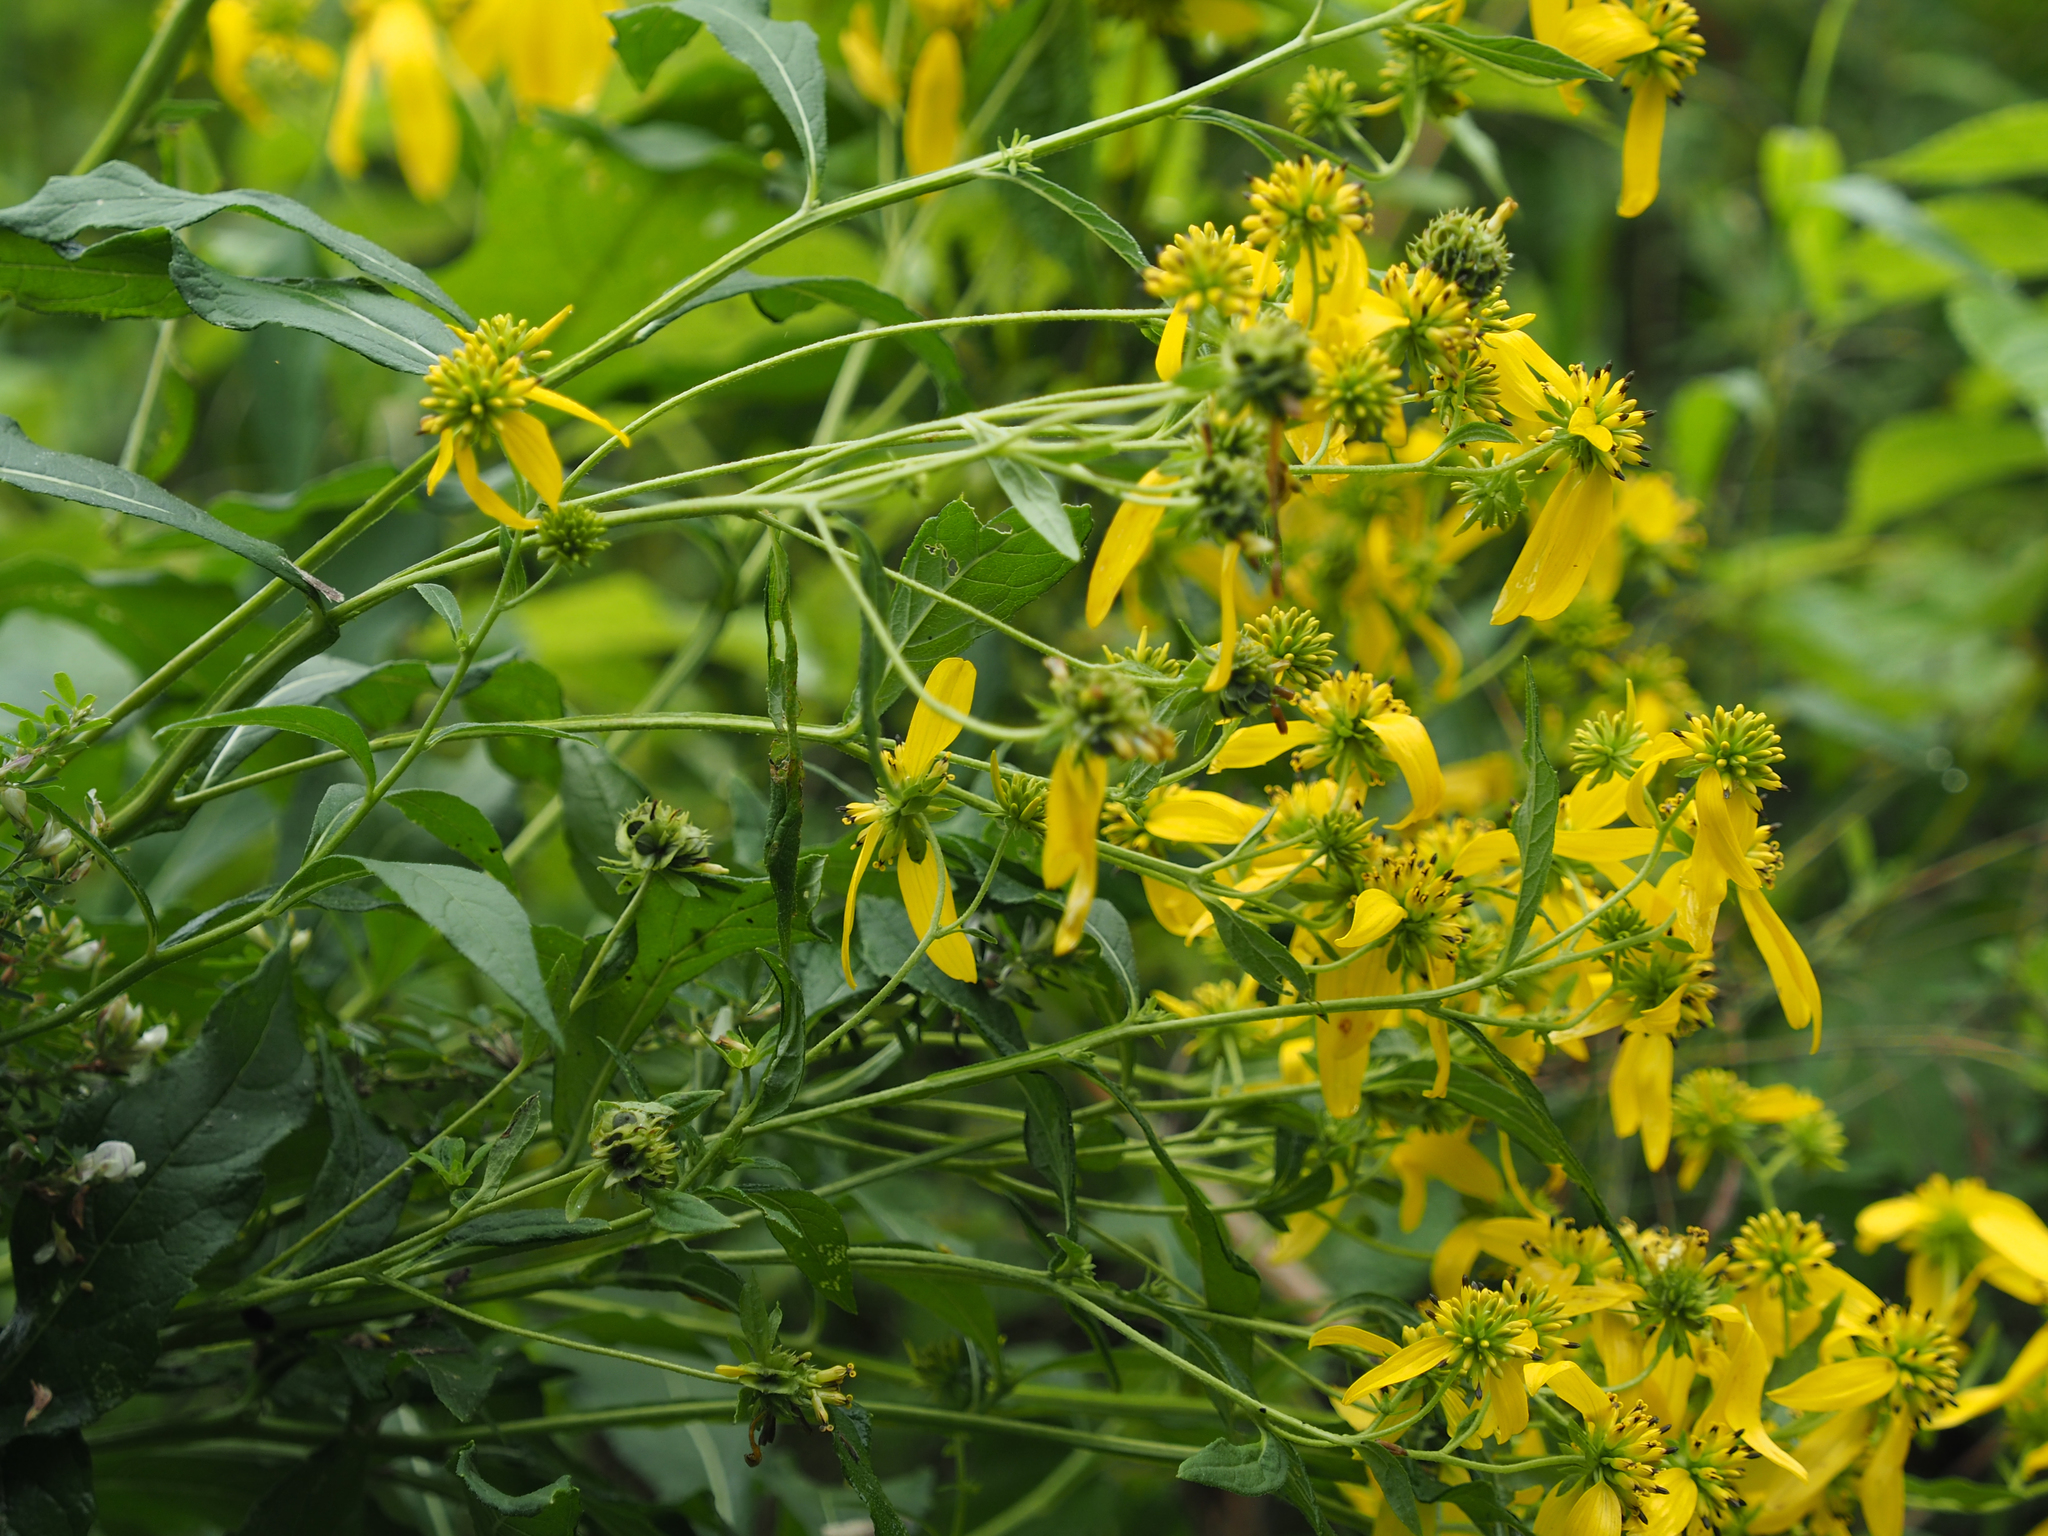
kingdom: Plantae
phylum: Tracheophyta
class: Magnoliopsida
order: Asterales
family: Asteraceae
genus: Verbesina
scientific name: Verbesina alternifolia
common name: Wingstem
